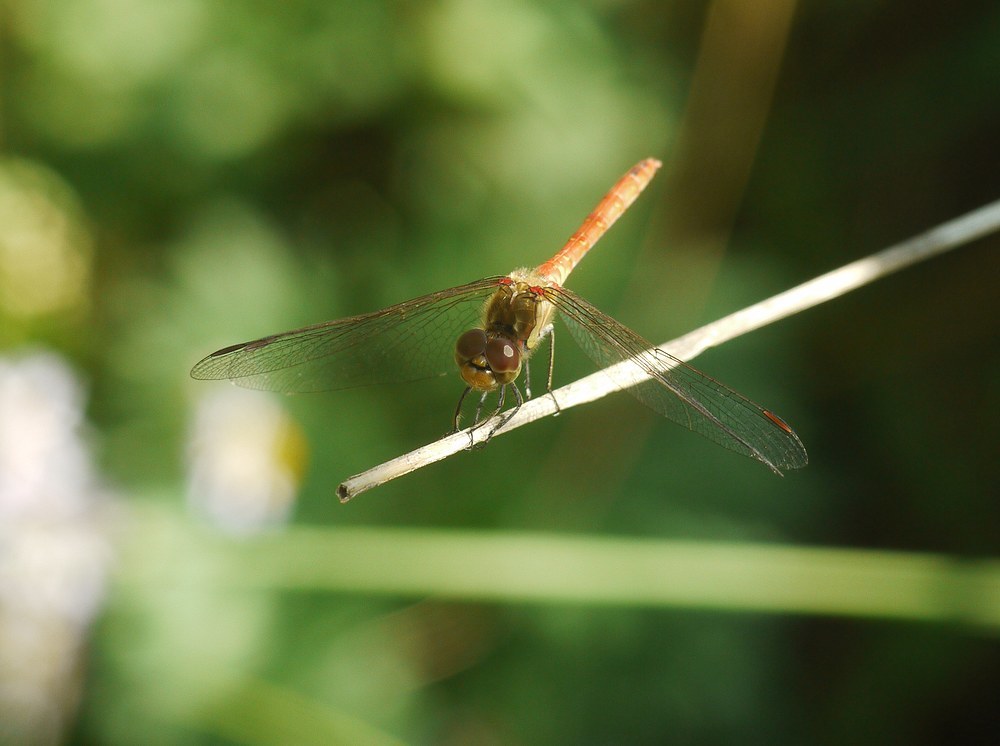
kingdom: Animalia
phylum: Arthropoda
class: Insecta
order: Odonata
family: Libellulidae
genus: Sympetrum
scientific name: Sympetrum striolatum
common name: Common darter
